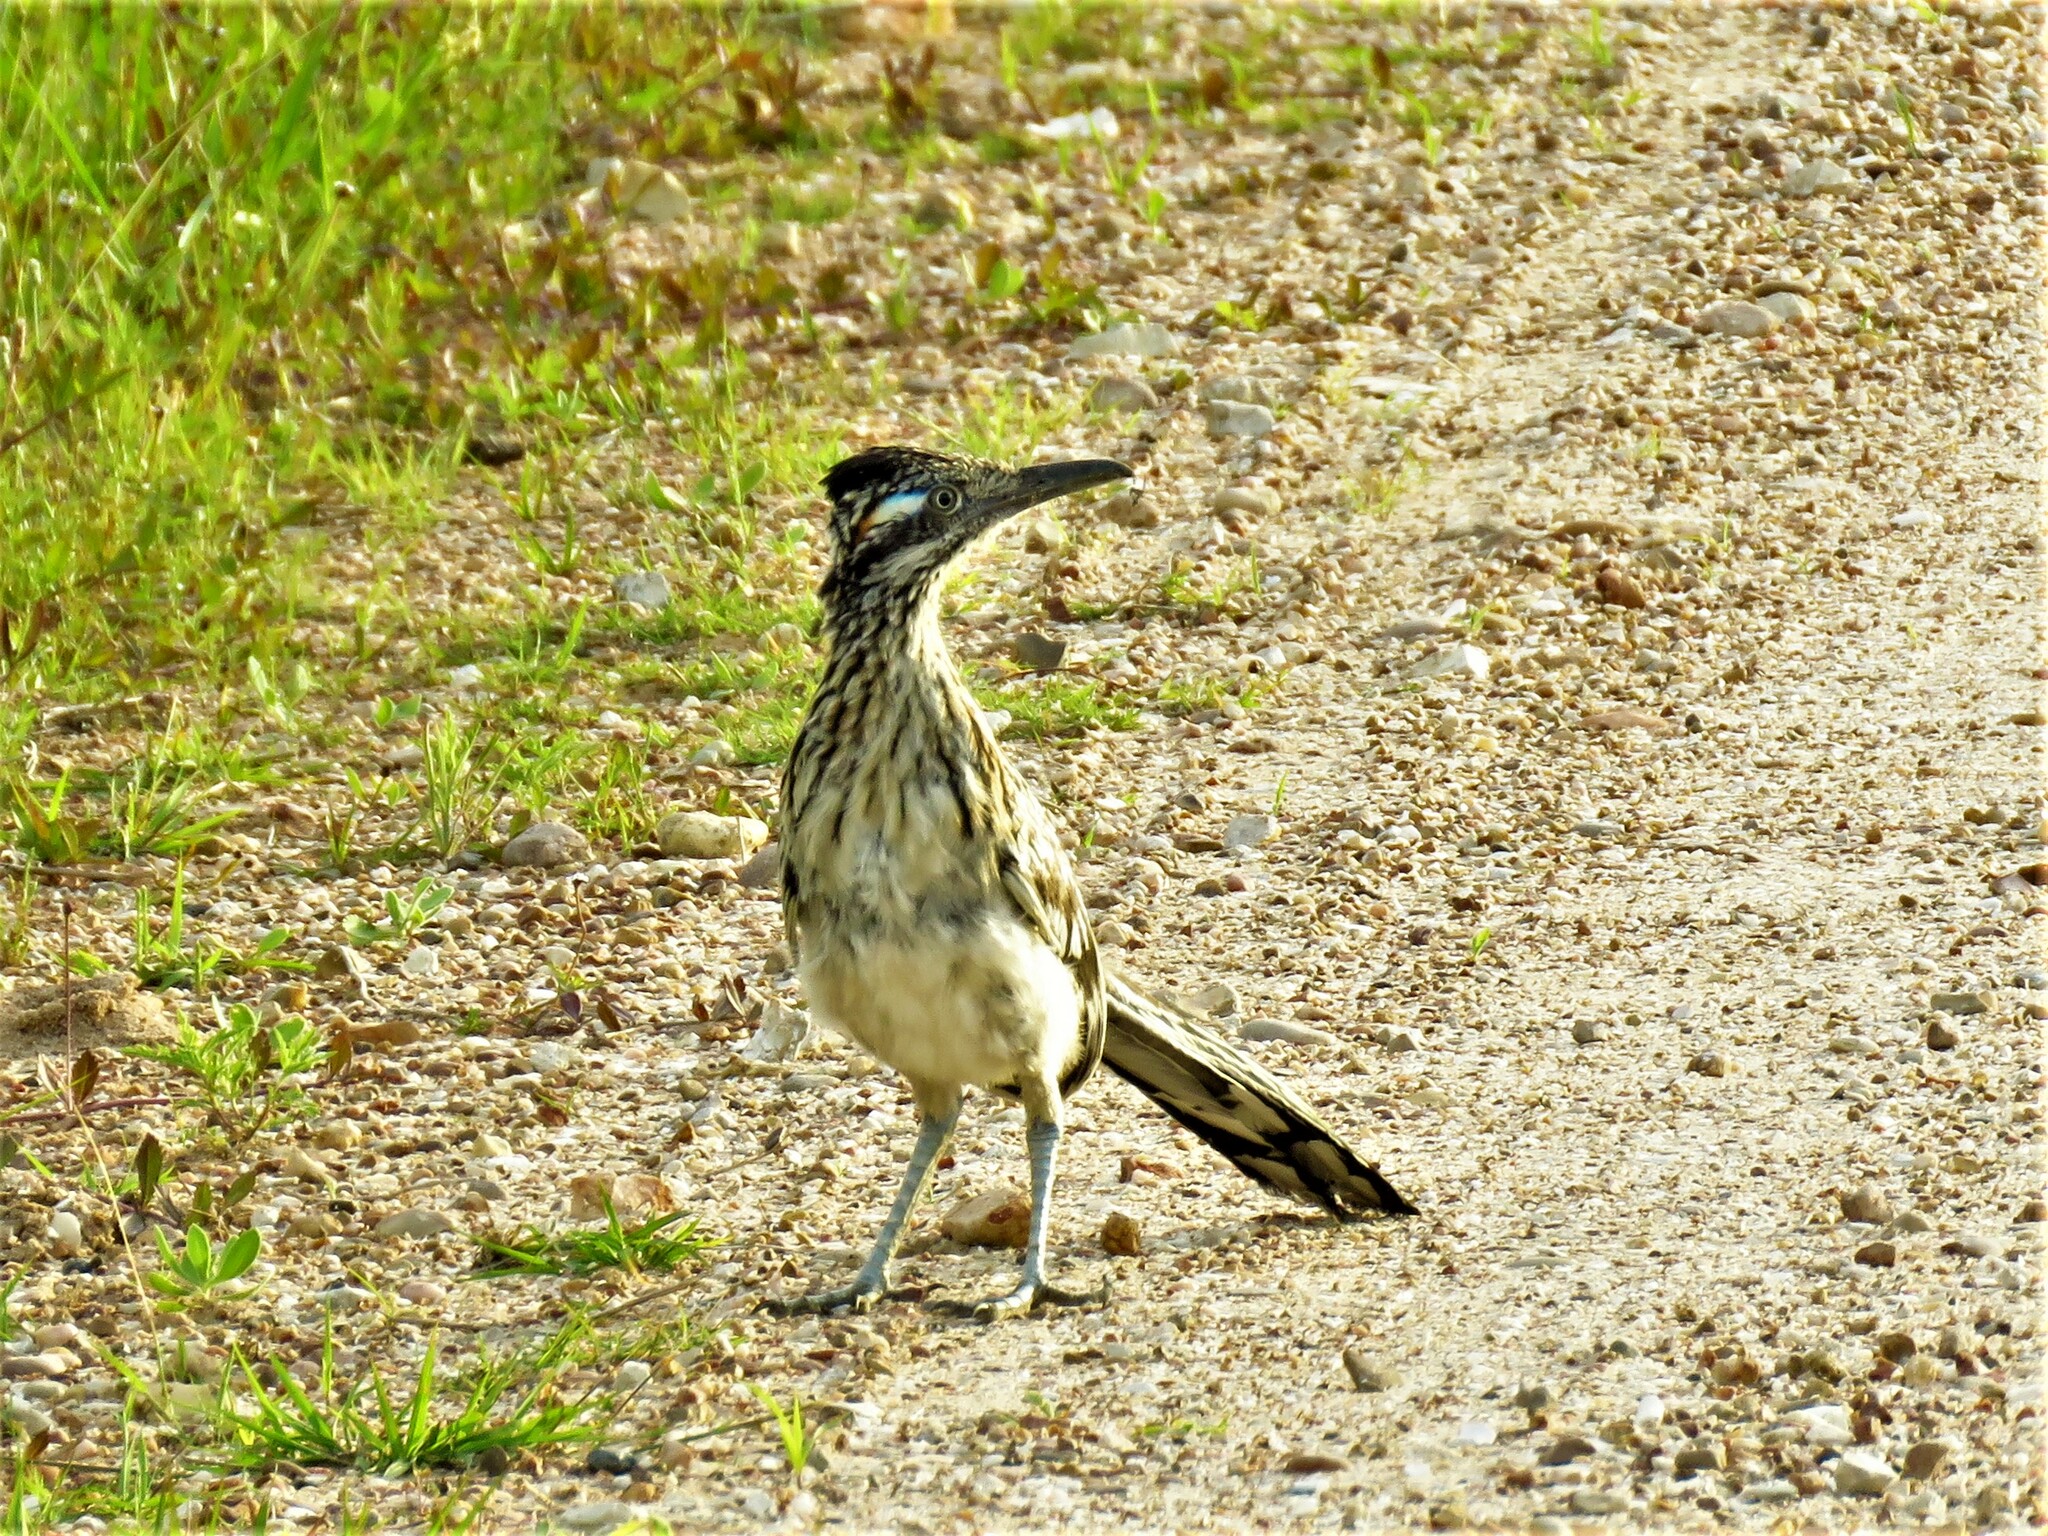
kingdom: Animalia
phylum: Chordata
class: Aves
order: Cuculiformes
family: Cuculidae
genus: Geococcyx
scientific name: Geococcyx californianus
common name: Greater roadrunner
